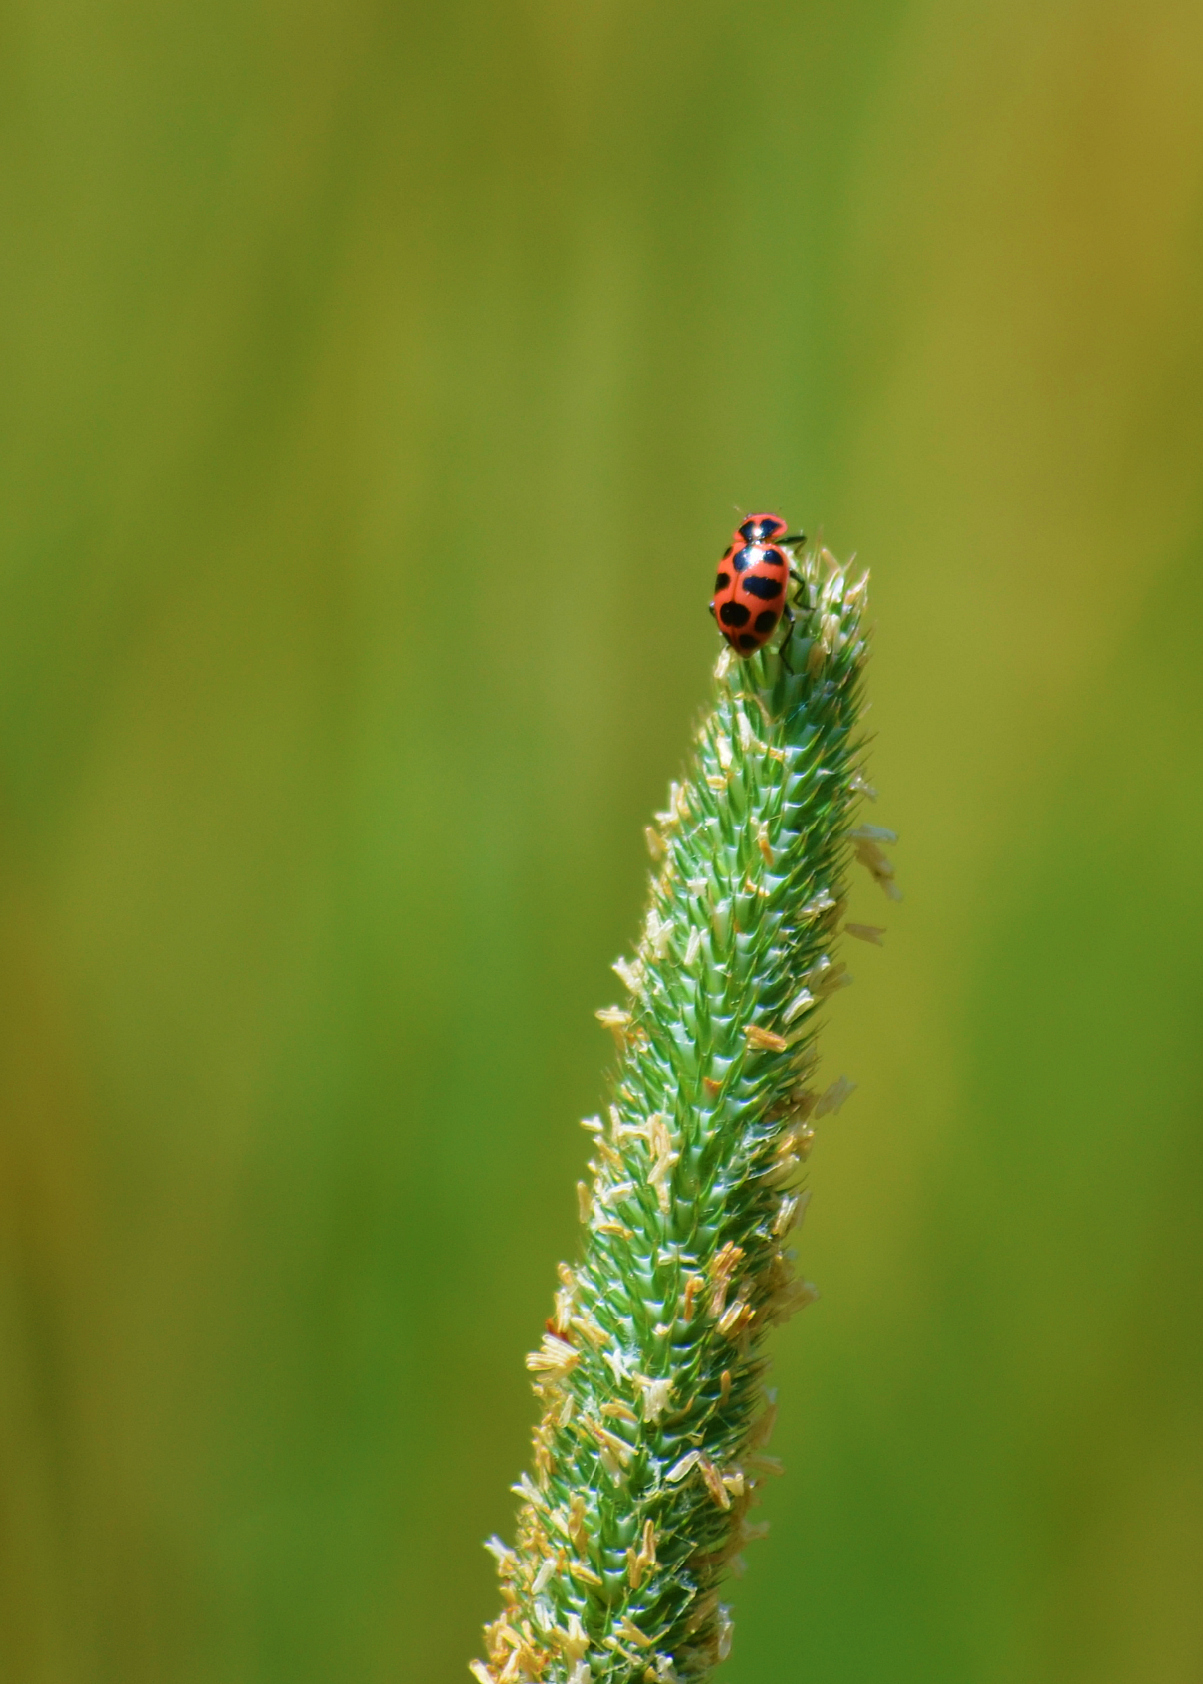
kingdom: Animalia
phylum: Arthropoda
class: Insecta
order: Coleoptera
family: Coccinellidae
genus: Coleomegilla
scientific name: Coleomegilla maculata
